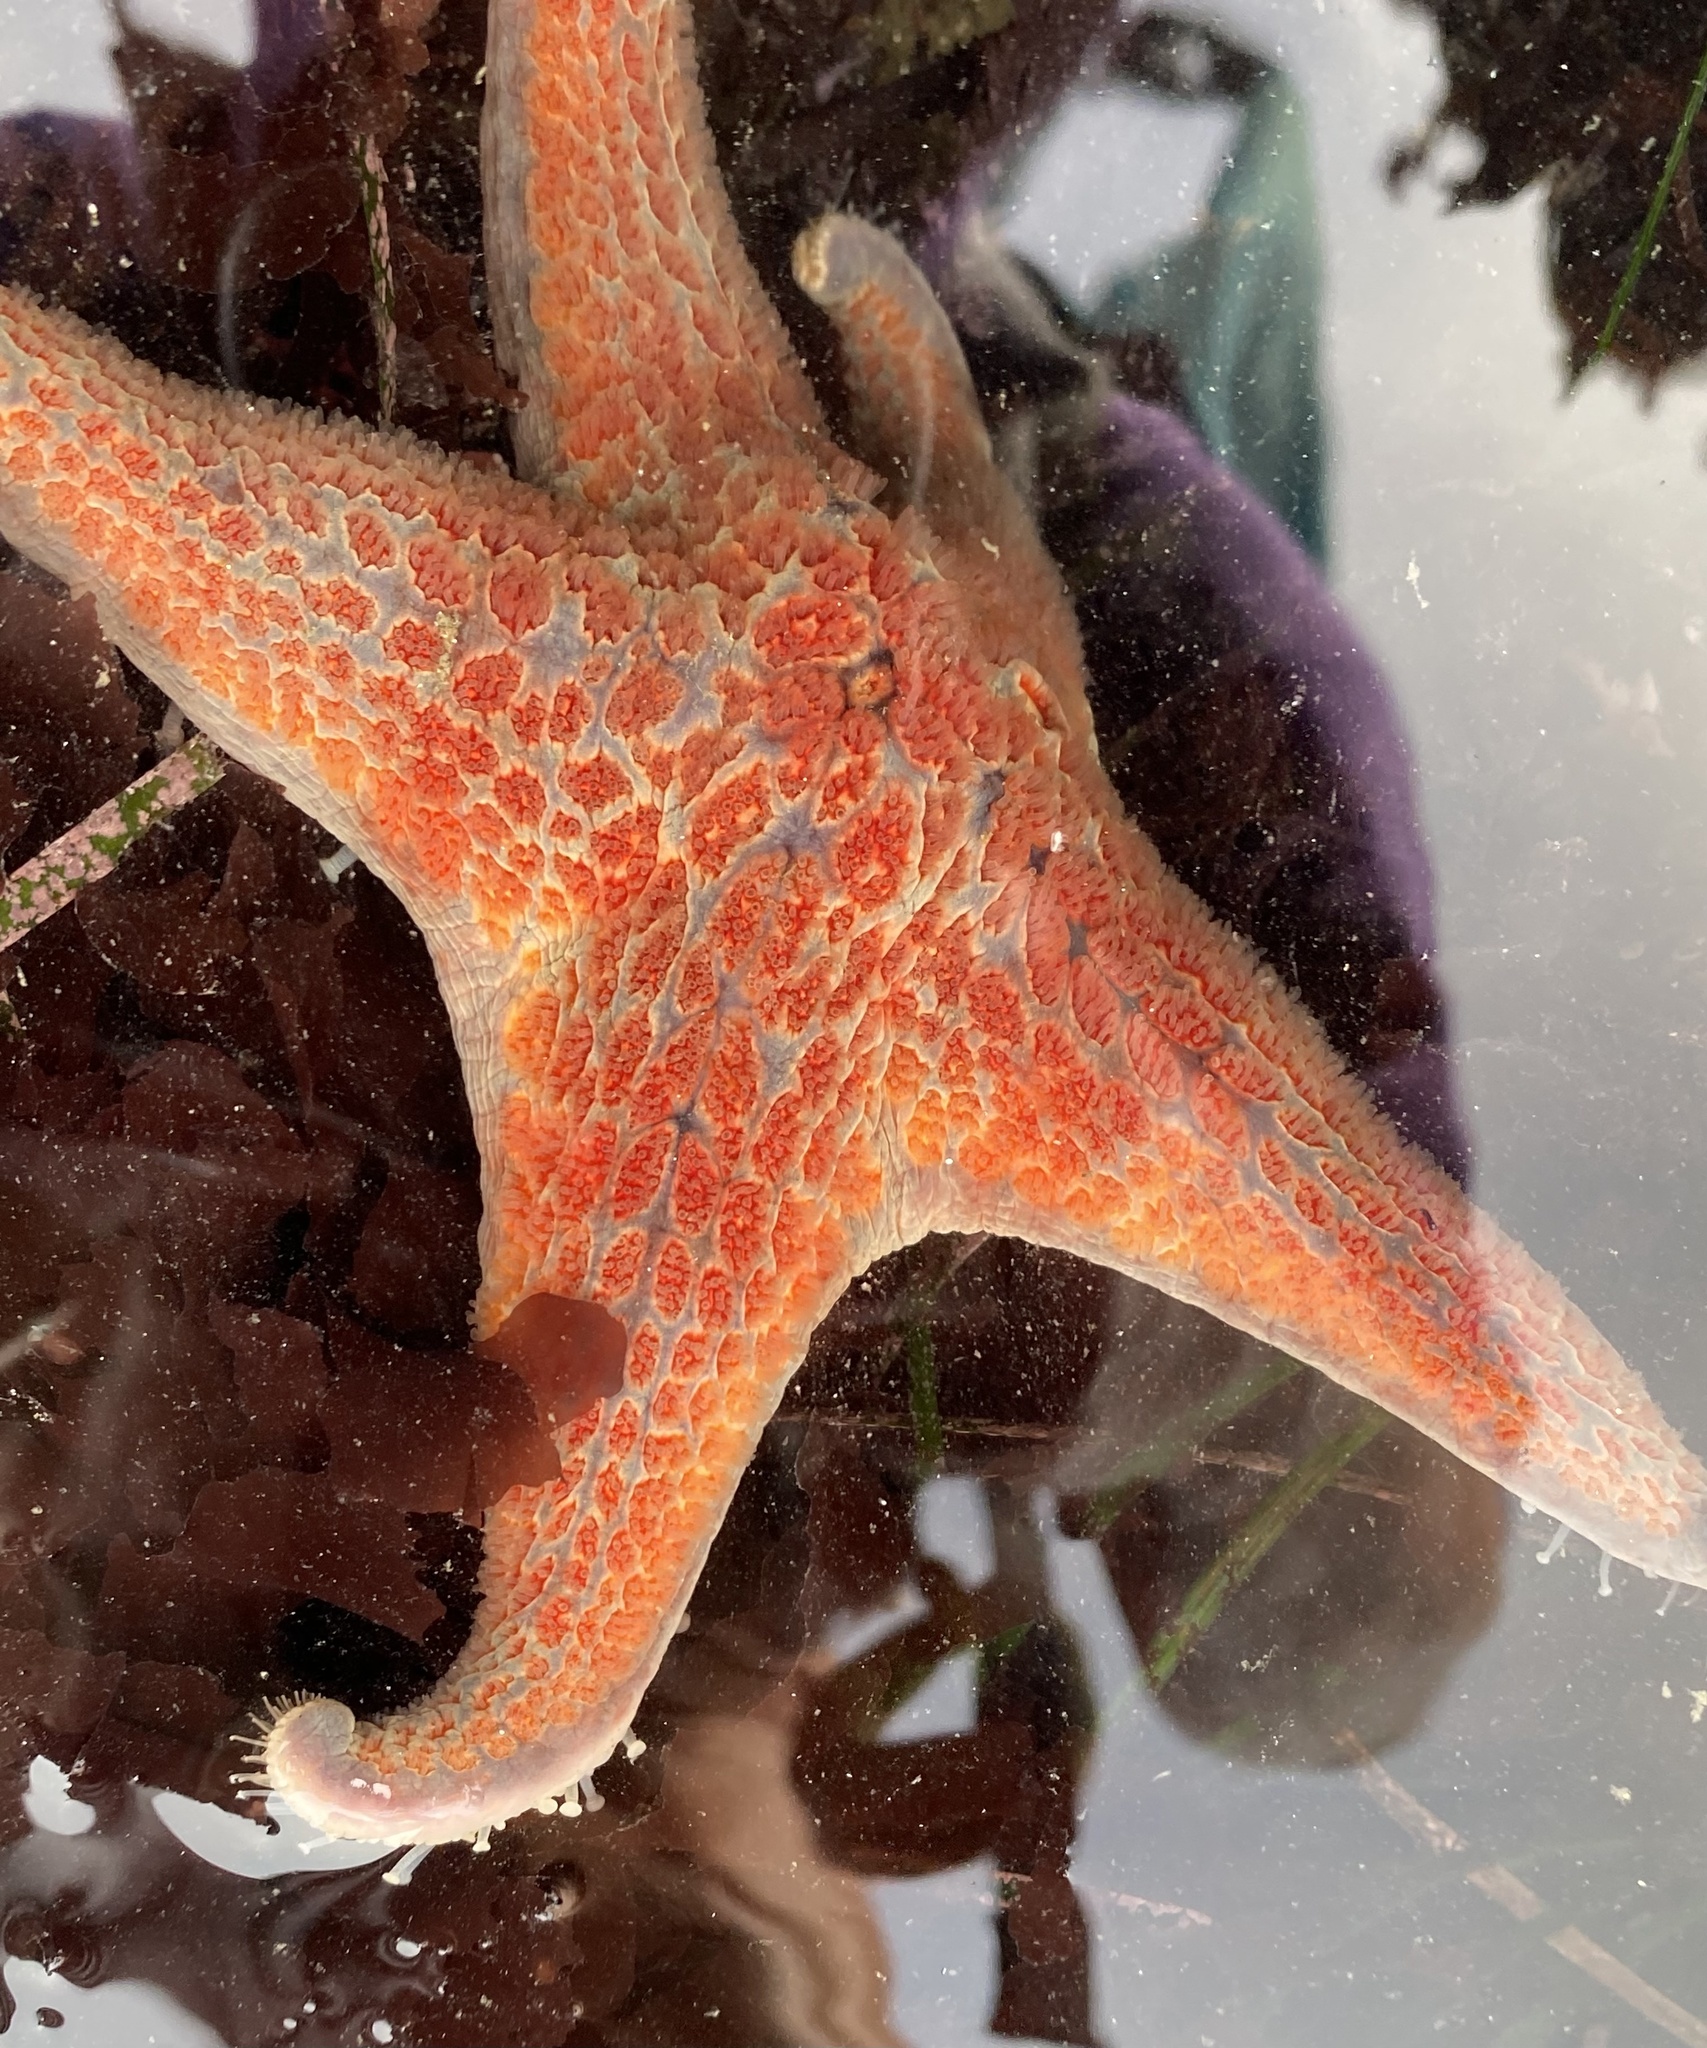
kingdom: Animalia
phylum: Echinodermata
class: Asteroidea
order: Valvatida
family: Asteropseidae
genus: Dermasterias
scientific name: Dermasterias imbricata
